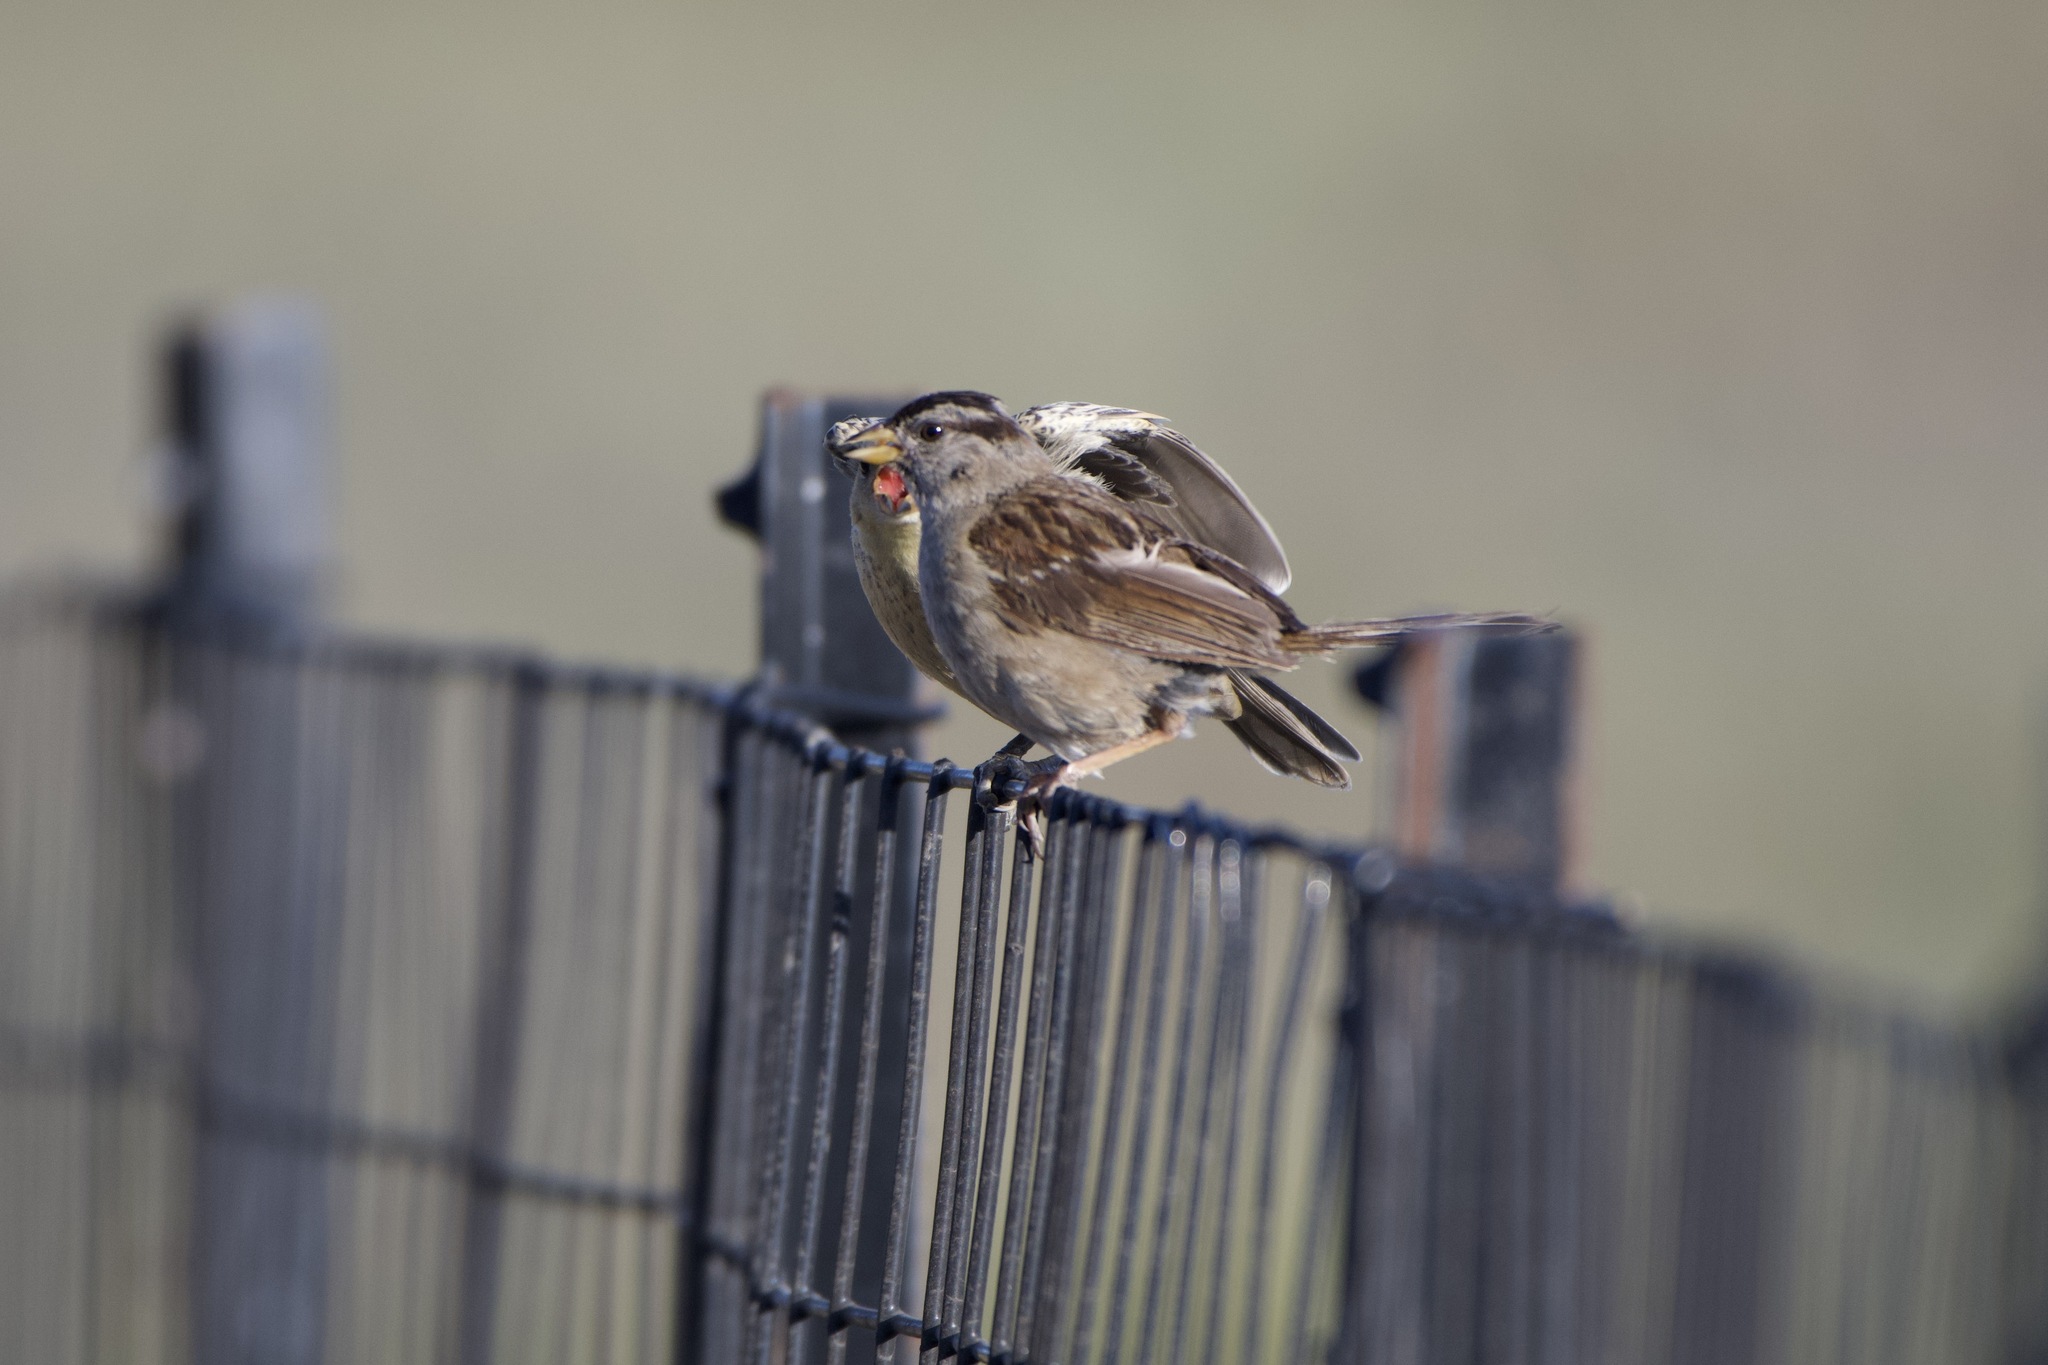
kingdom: Animalia
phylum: Chordata
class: Aves
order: Passeriformes
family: Passerellidae
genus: Zonotrichia
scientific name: Zonotrichia leucophrys
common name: White-crowned sparrow
